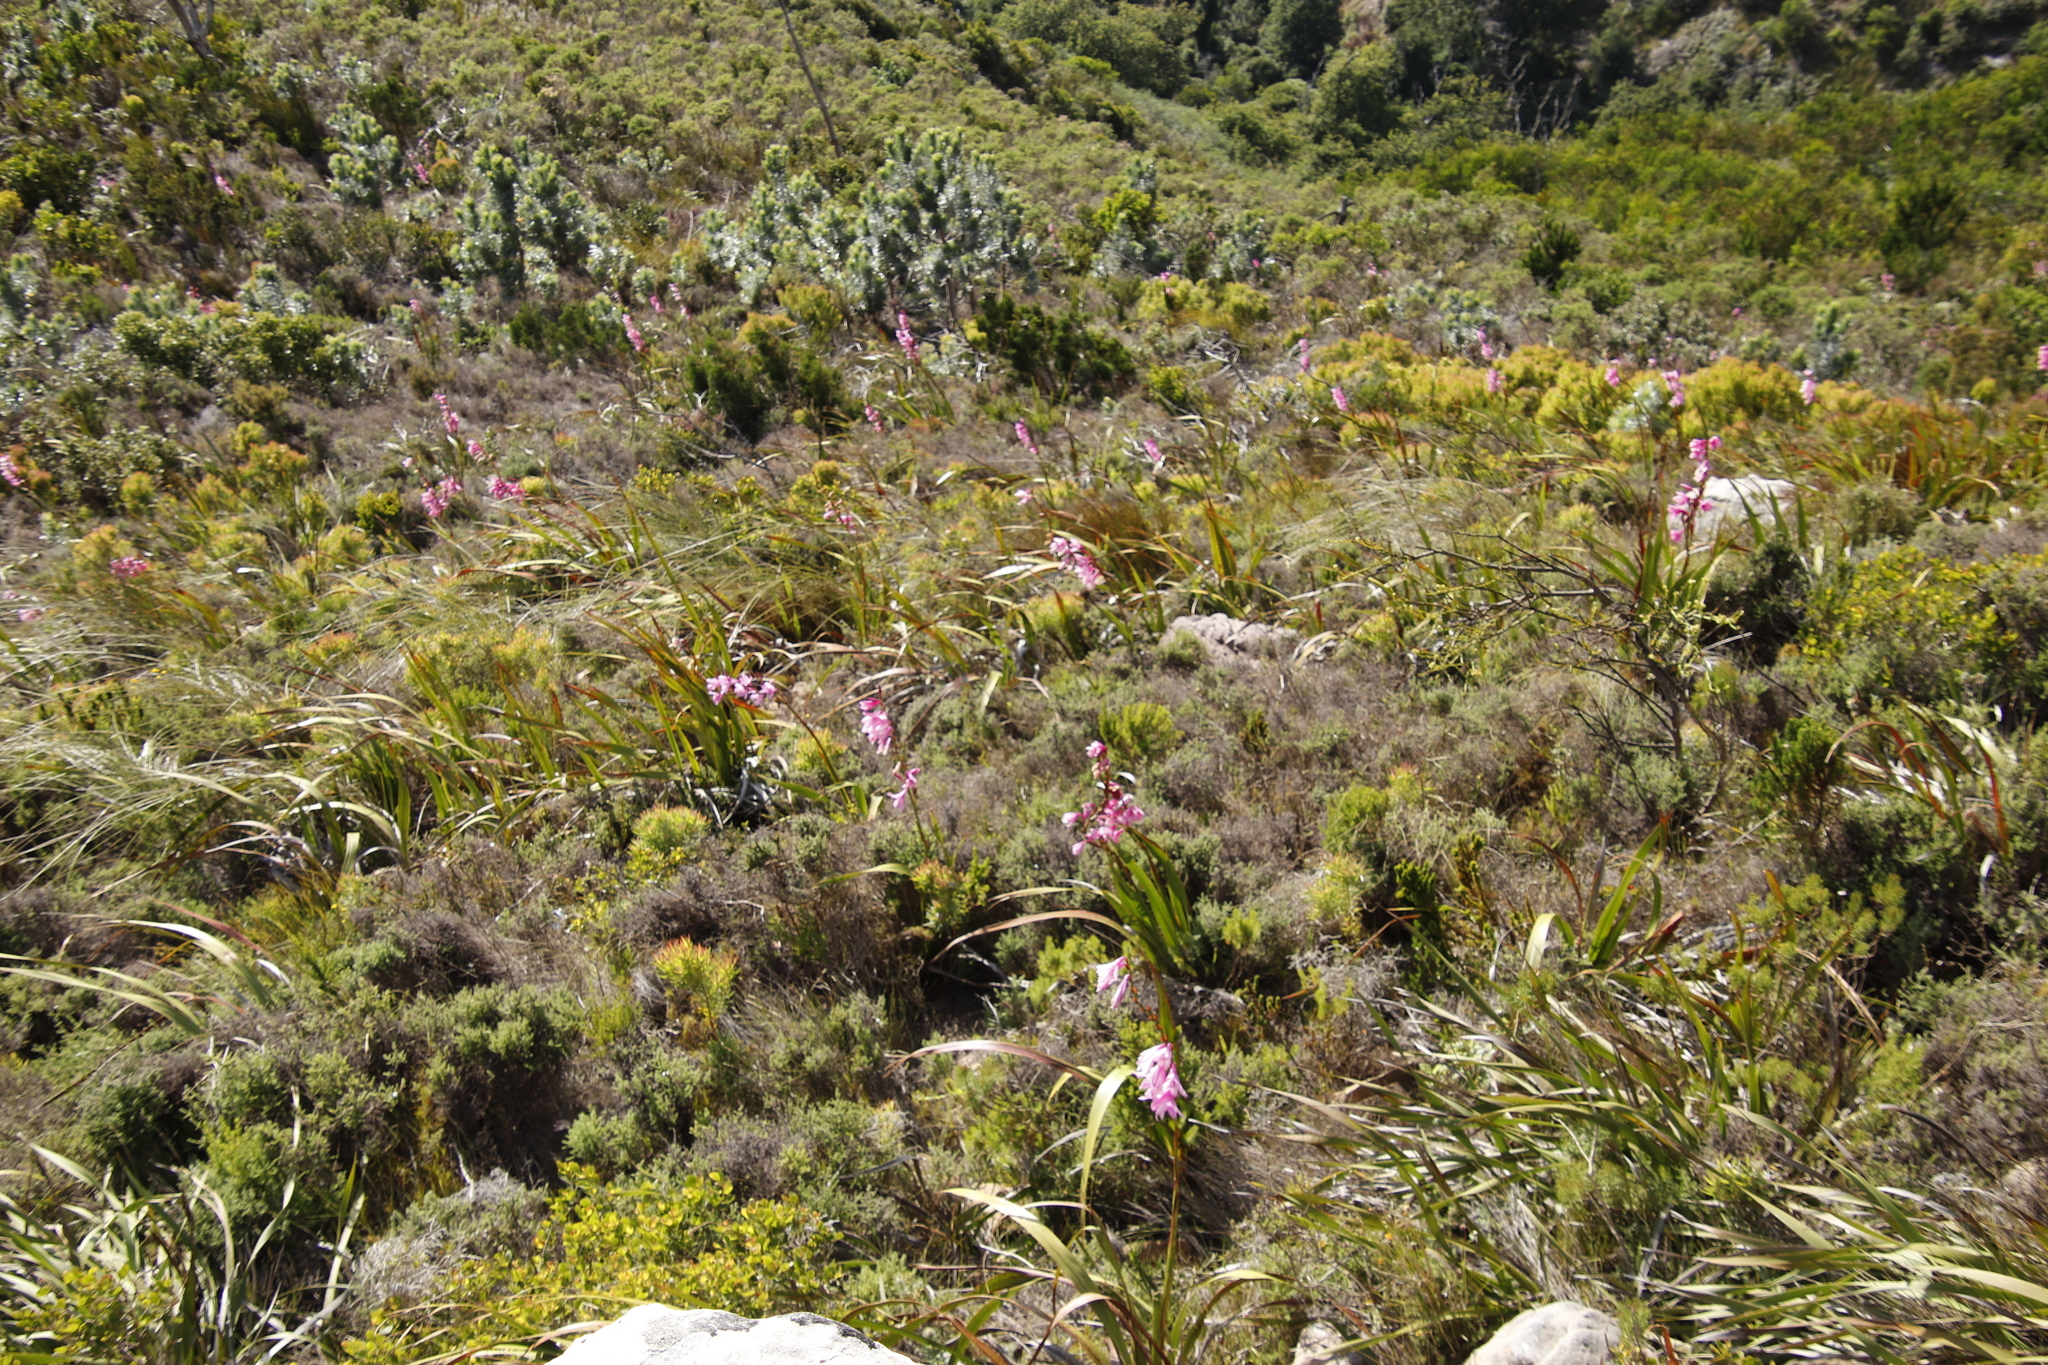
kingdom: Plantae
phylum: Tracheophyta
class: Liliopsida
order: Asparagales
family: Iridaceae
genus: Watsonia
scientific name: Watsonia borbonica
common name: Bugle-lily
